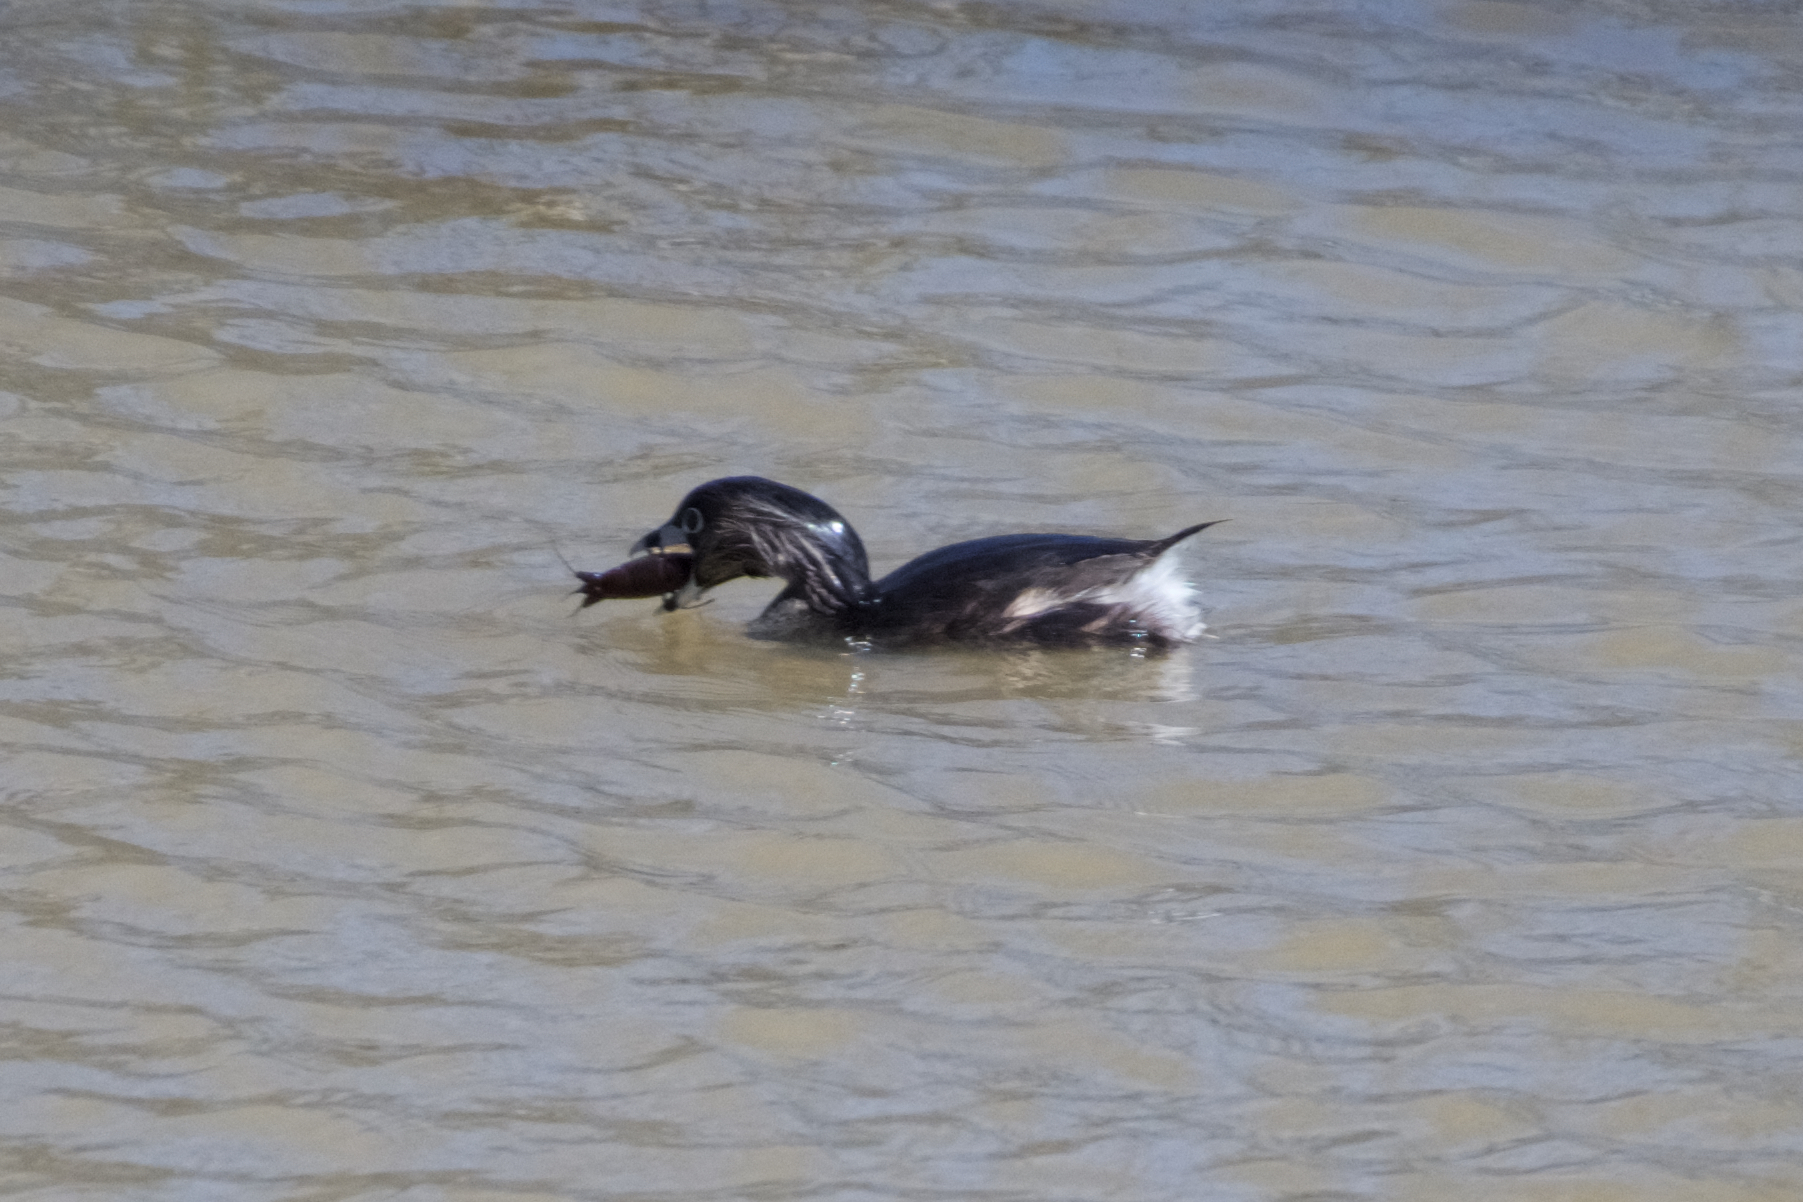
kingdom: Animalia
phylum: Chordata
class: Aves
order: Podicipediformes
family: Podicipedidae
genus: Podilymbus
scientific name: Podilymbus podiceps
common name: Pied-billed grebe
